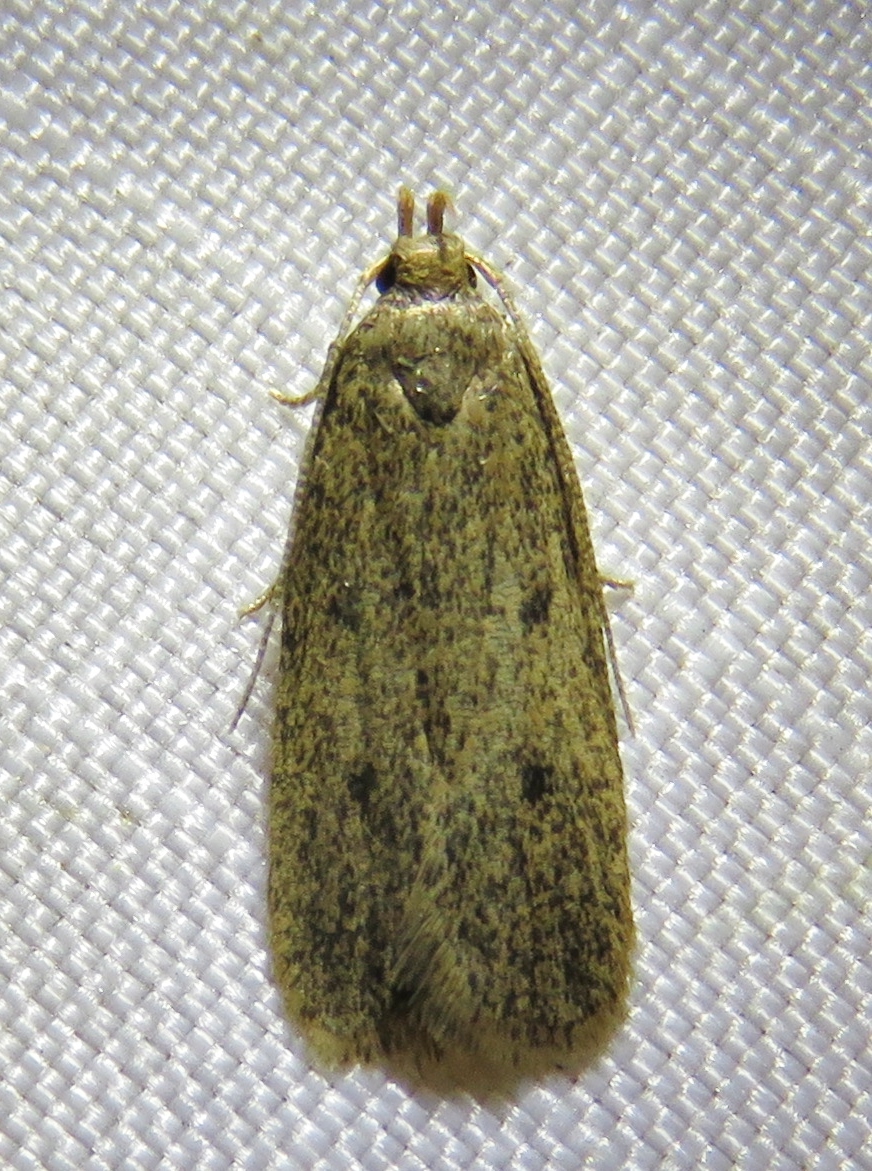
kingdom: Animalia
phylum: Arthropoda
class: Insecta
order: Lepidoptera
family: Autostichidae
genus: Glyphidocera
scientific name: Glyphidocera juniperella
